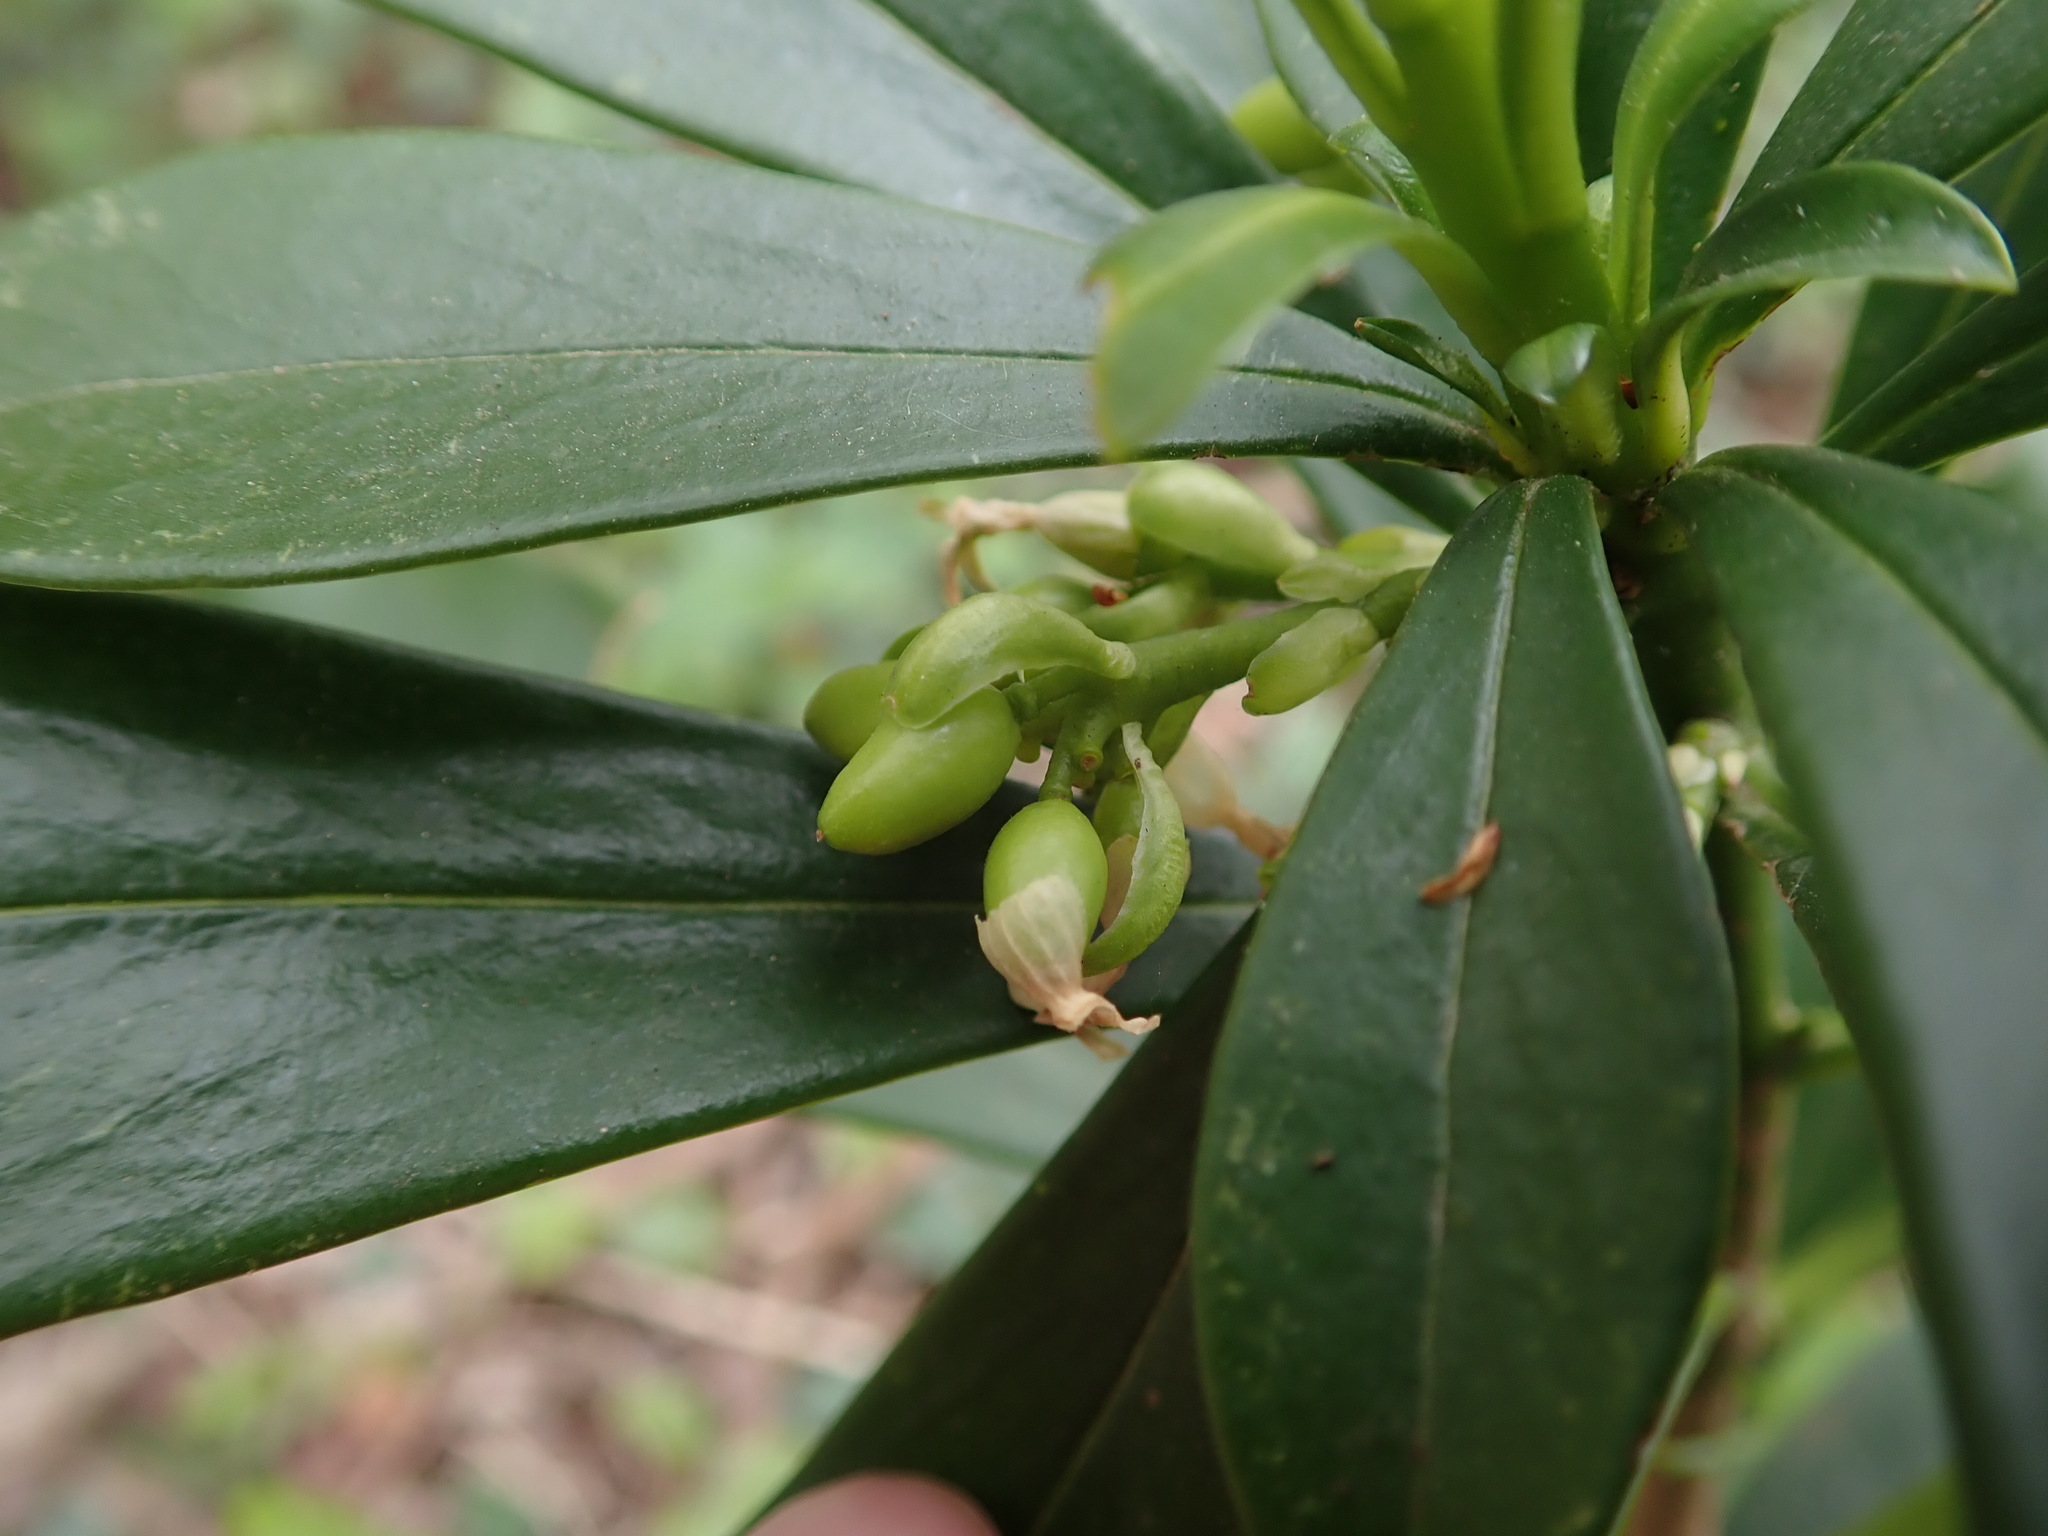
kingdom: Plantae
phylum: Tracheophyta
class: Magnoliopsida
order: Malvales
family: Thymelaeaceae
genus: Daphne
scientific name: Daphne laureola
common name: Spurge-laurel
